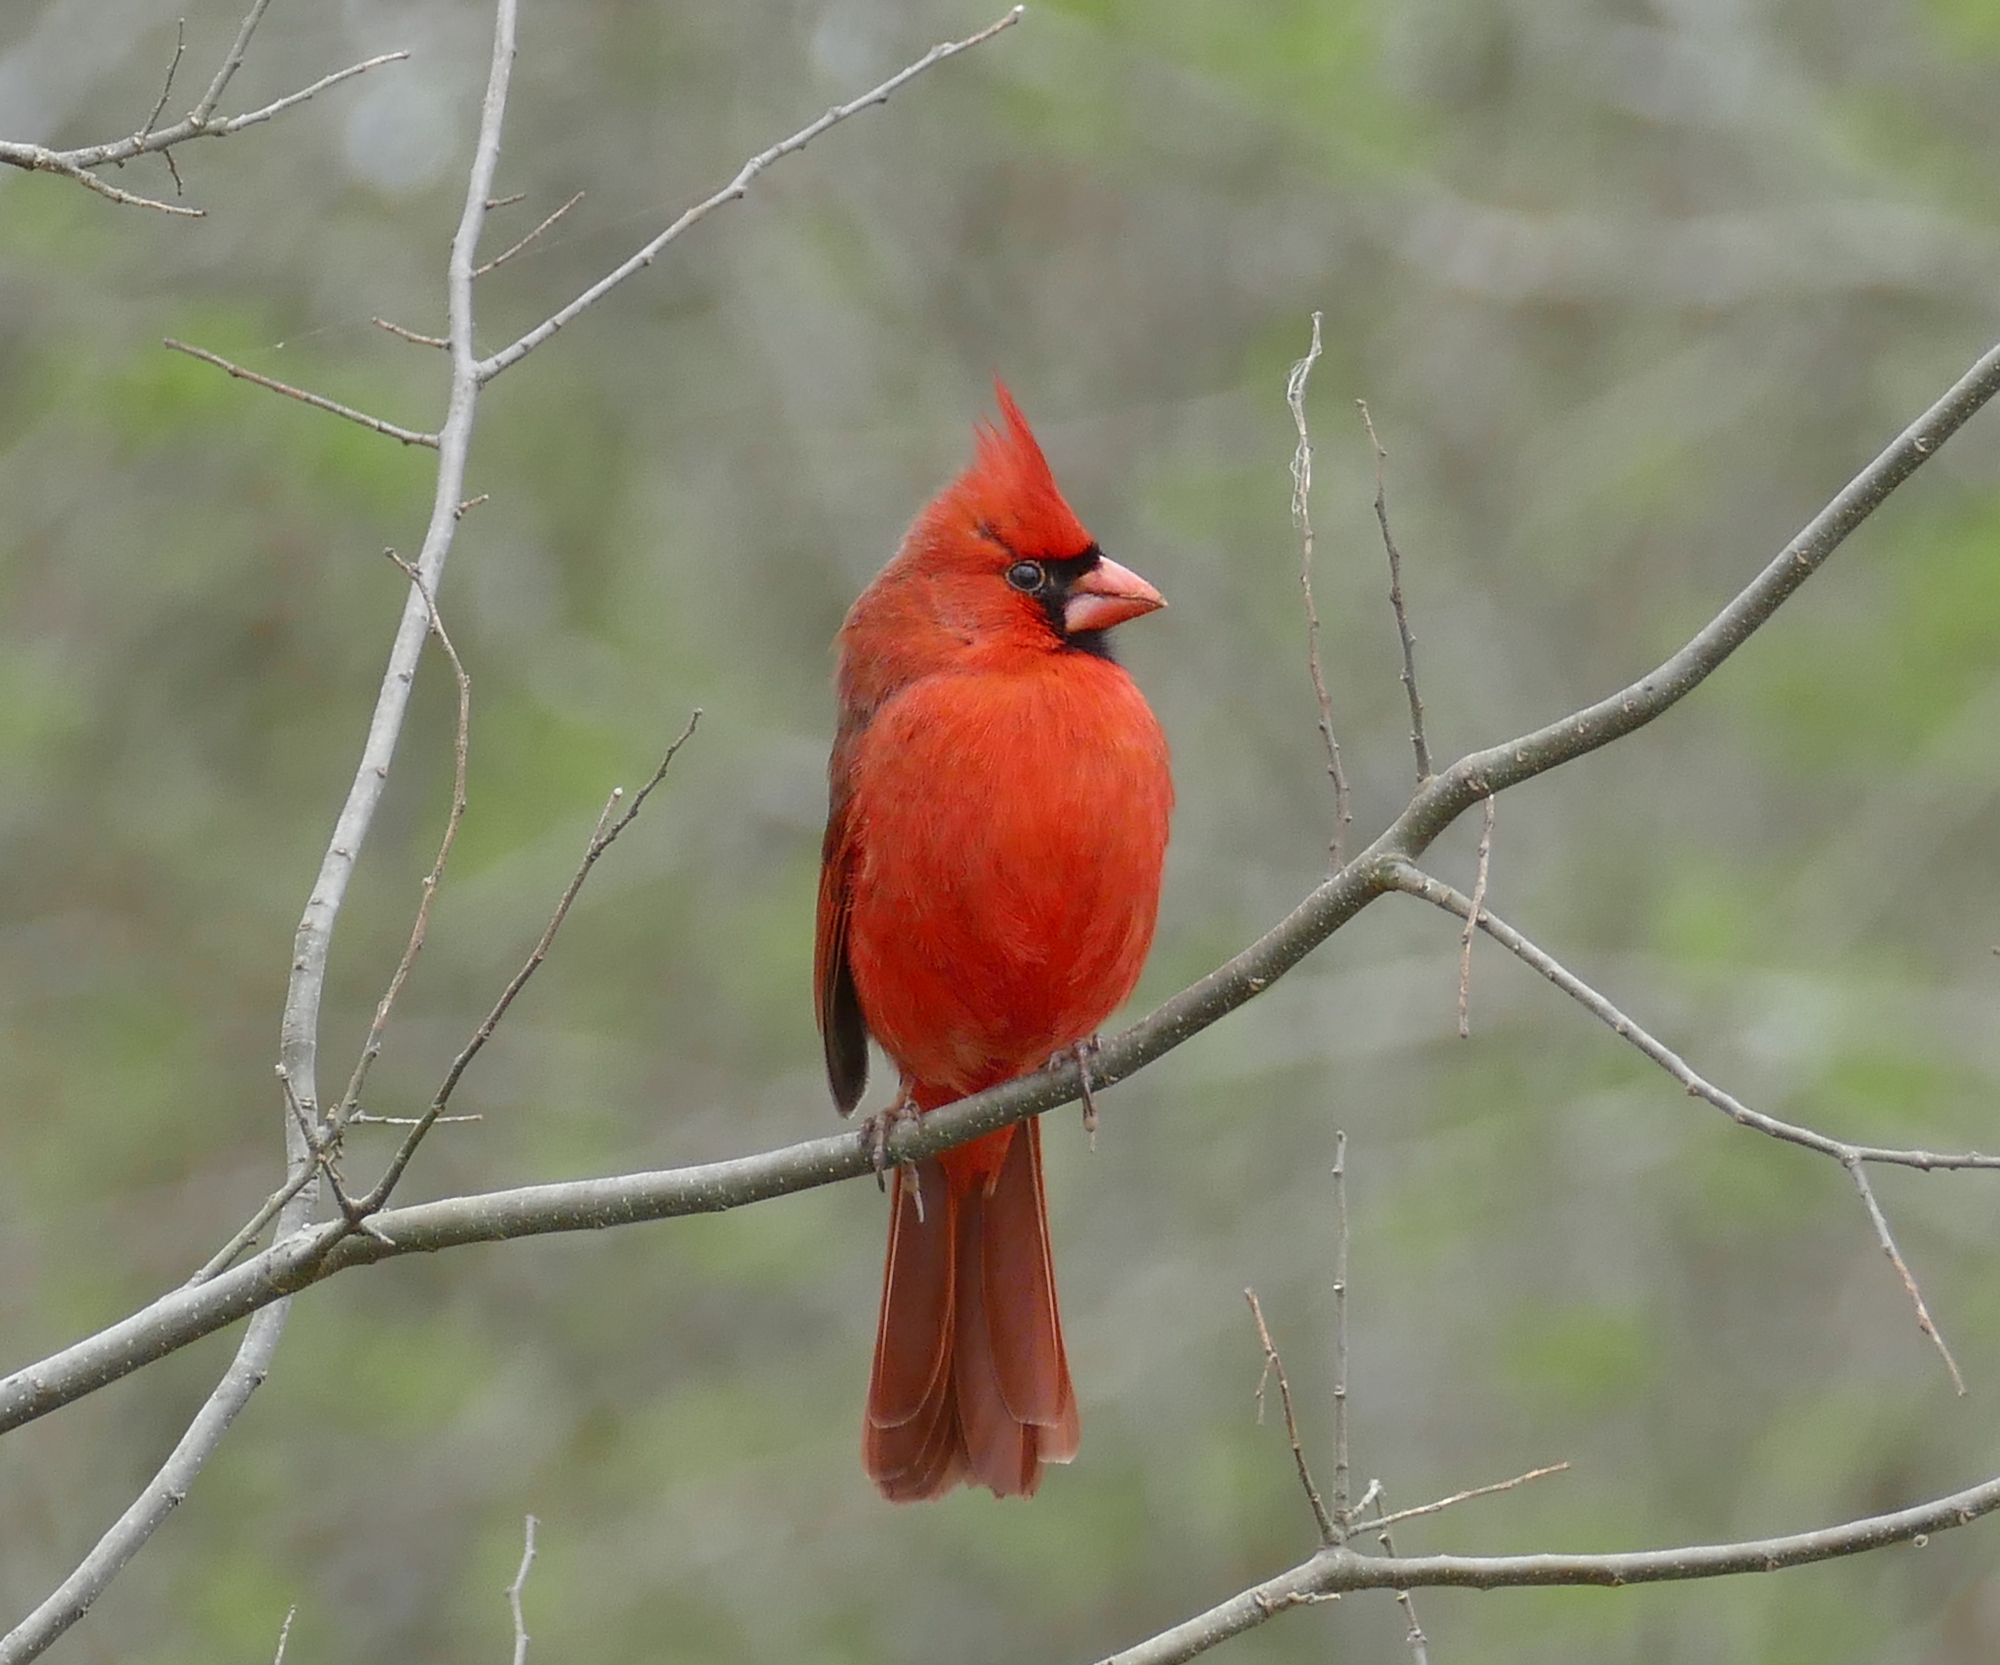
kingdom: Animalia
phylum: Chordata
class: Aves
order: Passeriformes
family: Cardinalidae
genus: Cardinalis
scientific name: Cardinalis cardinalis
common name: Northern cardinal
